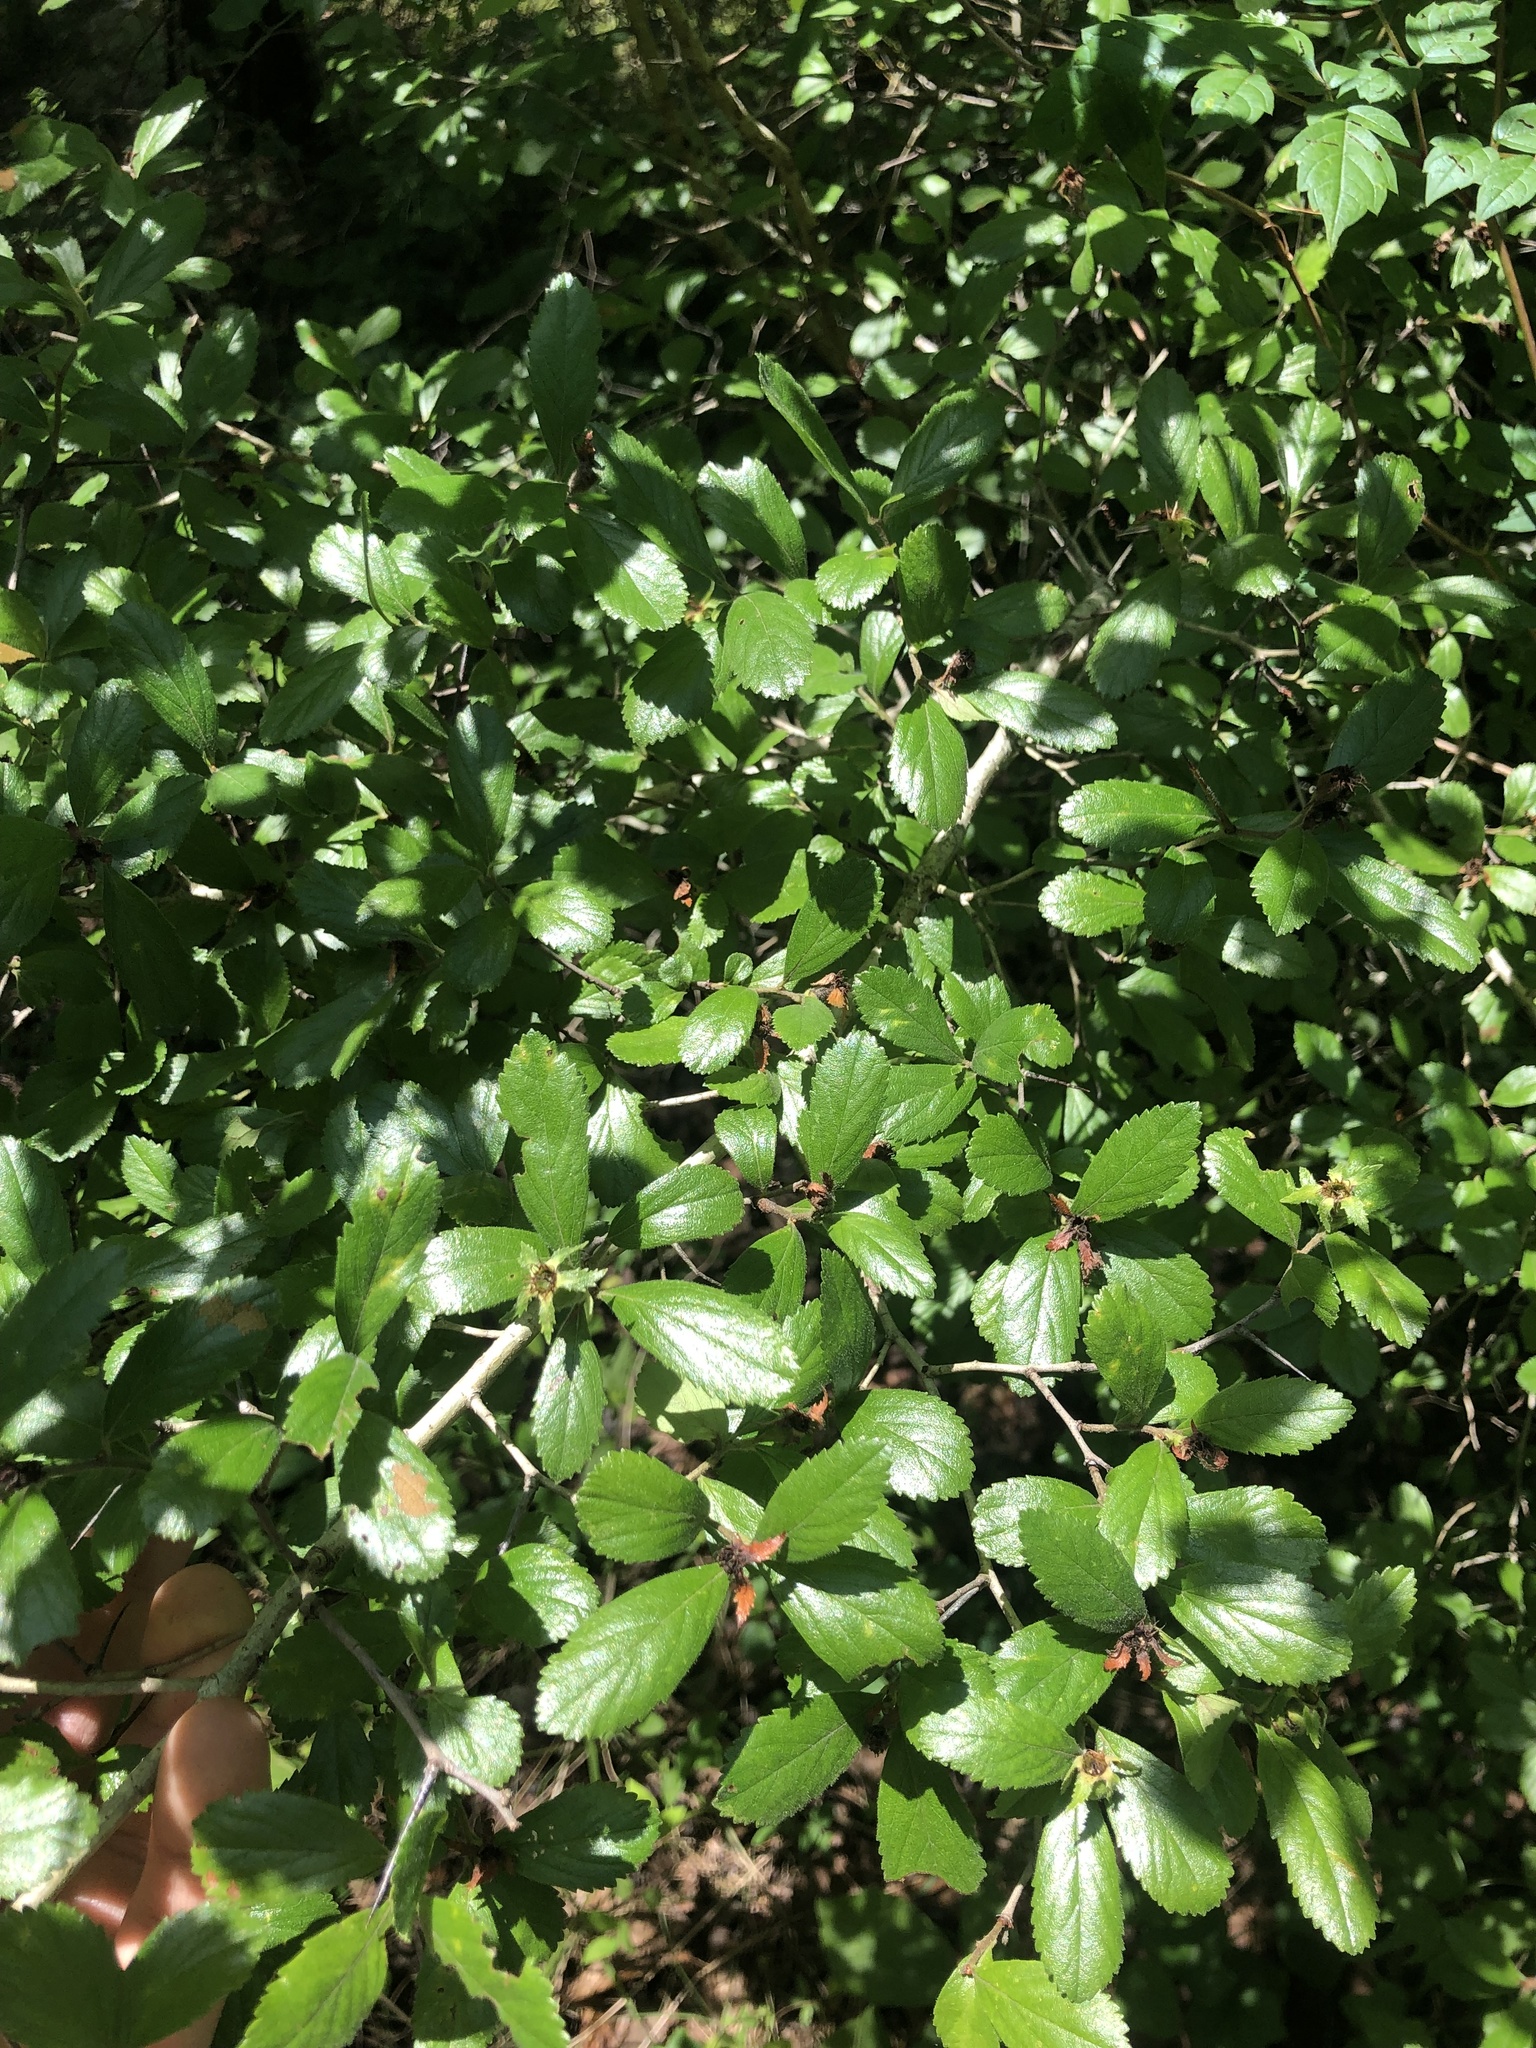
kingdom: Plantae
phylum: Tracheophyta
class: Magnoliopsida
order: Rosales
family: Rosaceae
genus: Crataegus
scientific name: Crataegus uniflora
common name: One-flower hawthorn
